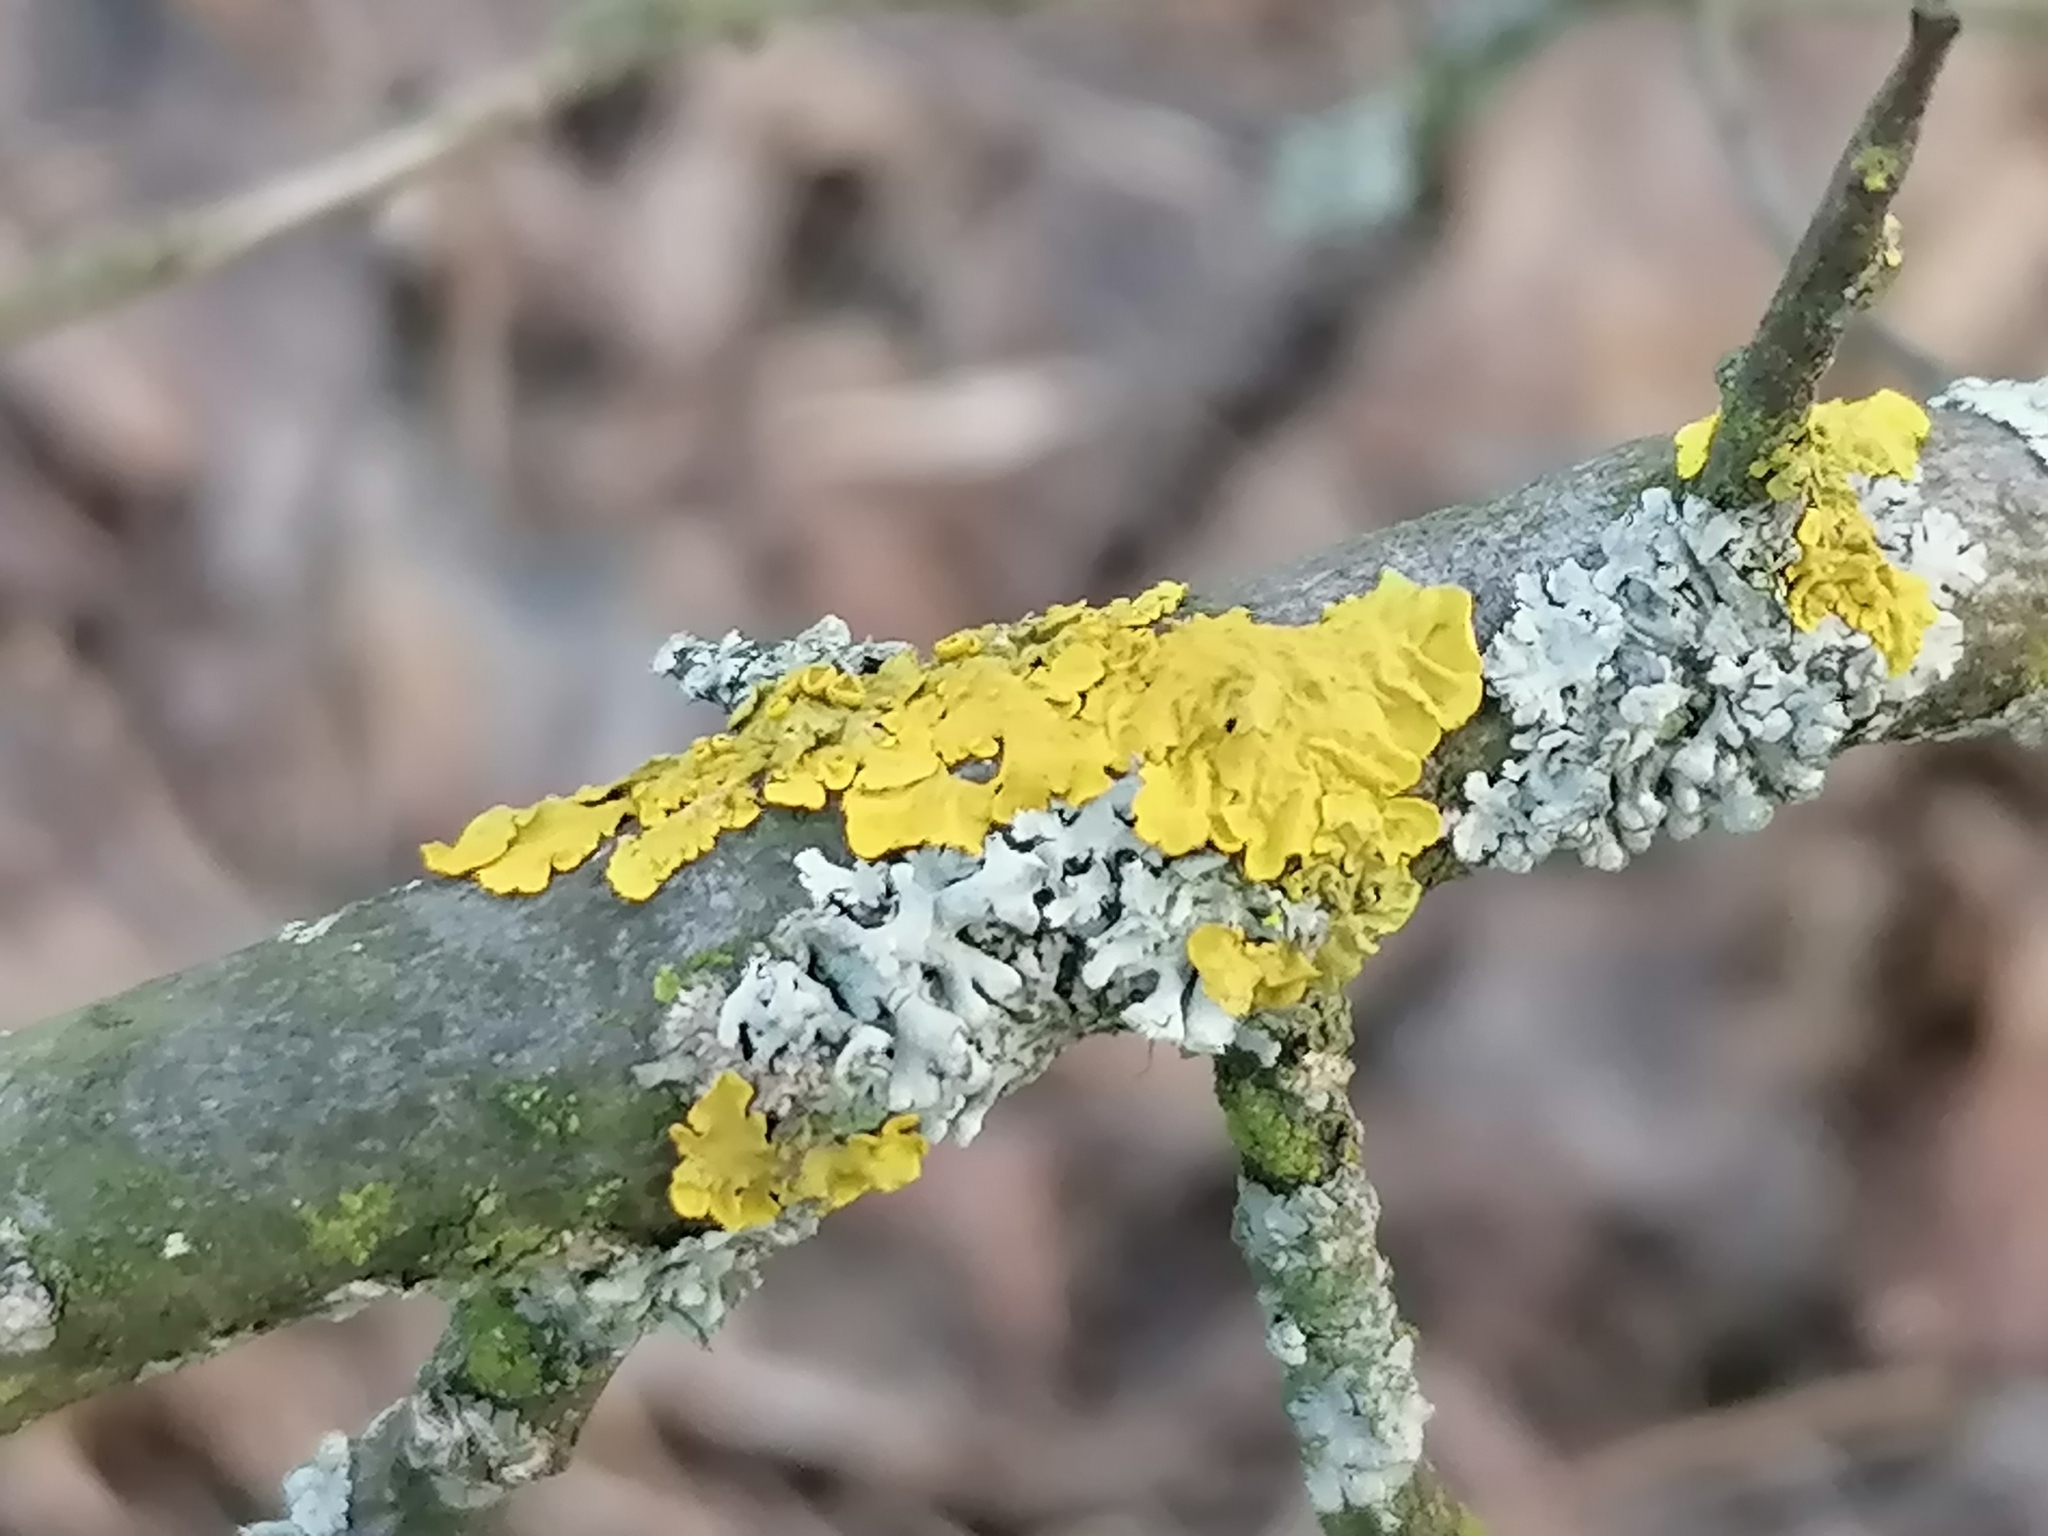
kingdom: Fungi
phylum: Ascomycota
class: Lecanoromycetes
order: Caliciales
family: Physciaceae
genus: Physcia
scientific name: Physcia adscendens
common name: Hooded rosette lichen
